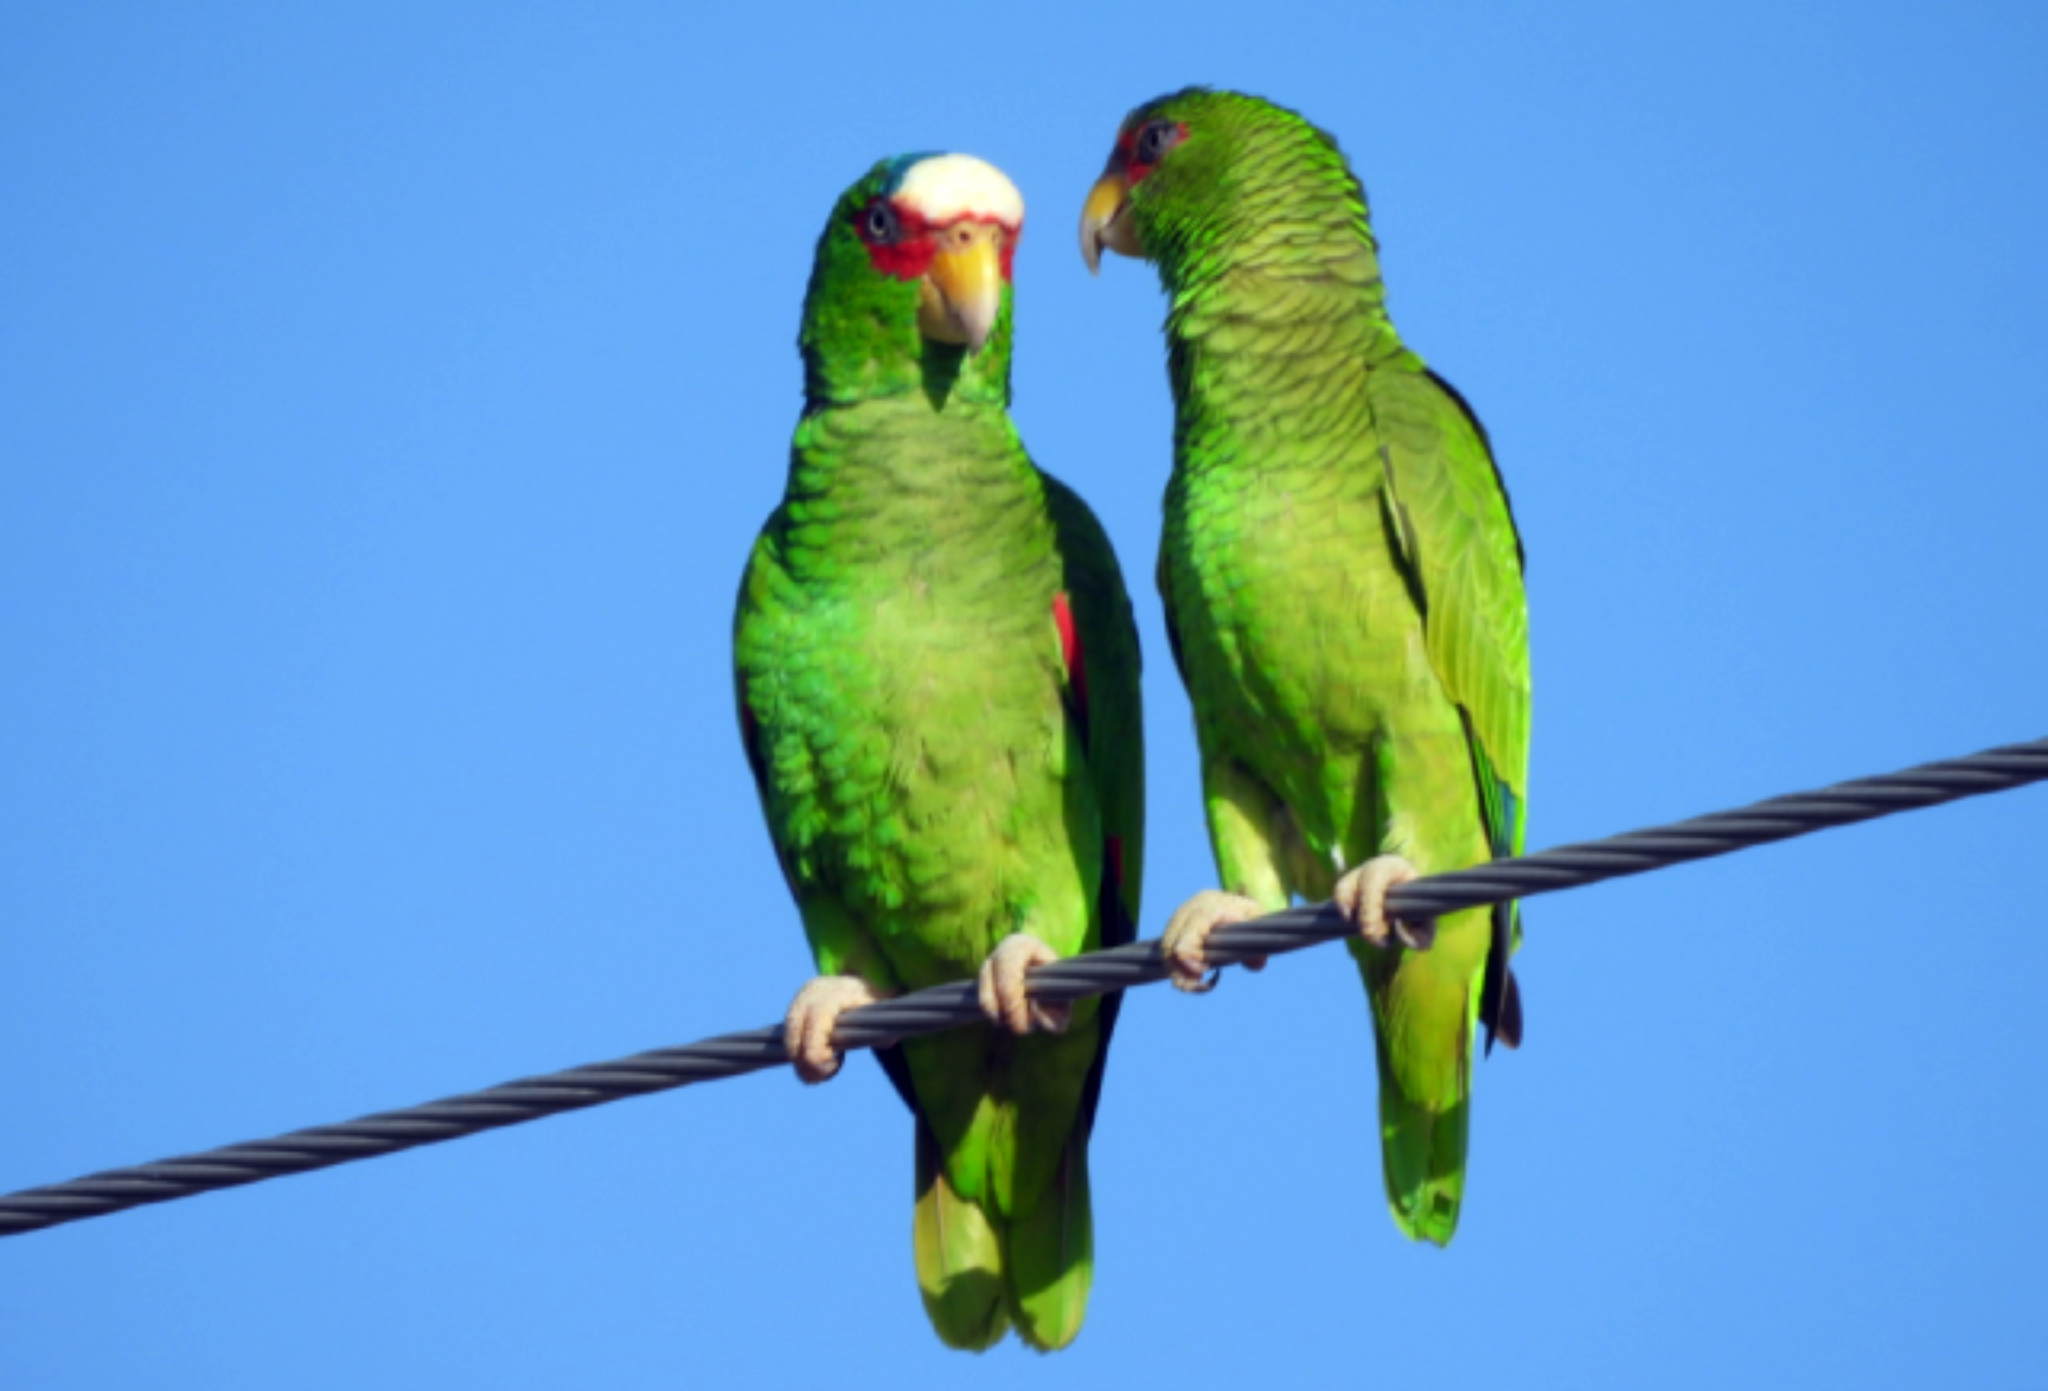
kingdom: Animalia
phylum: Chordata
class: Aves
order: Psittaciformes
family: Psittacidae
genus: Amazona
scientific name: Amazona albifrons
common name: White-fronted amazon
